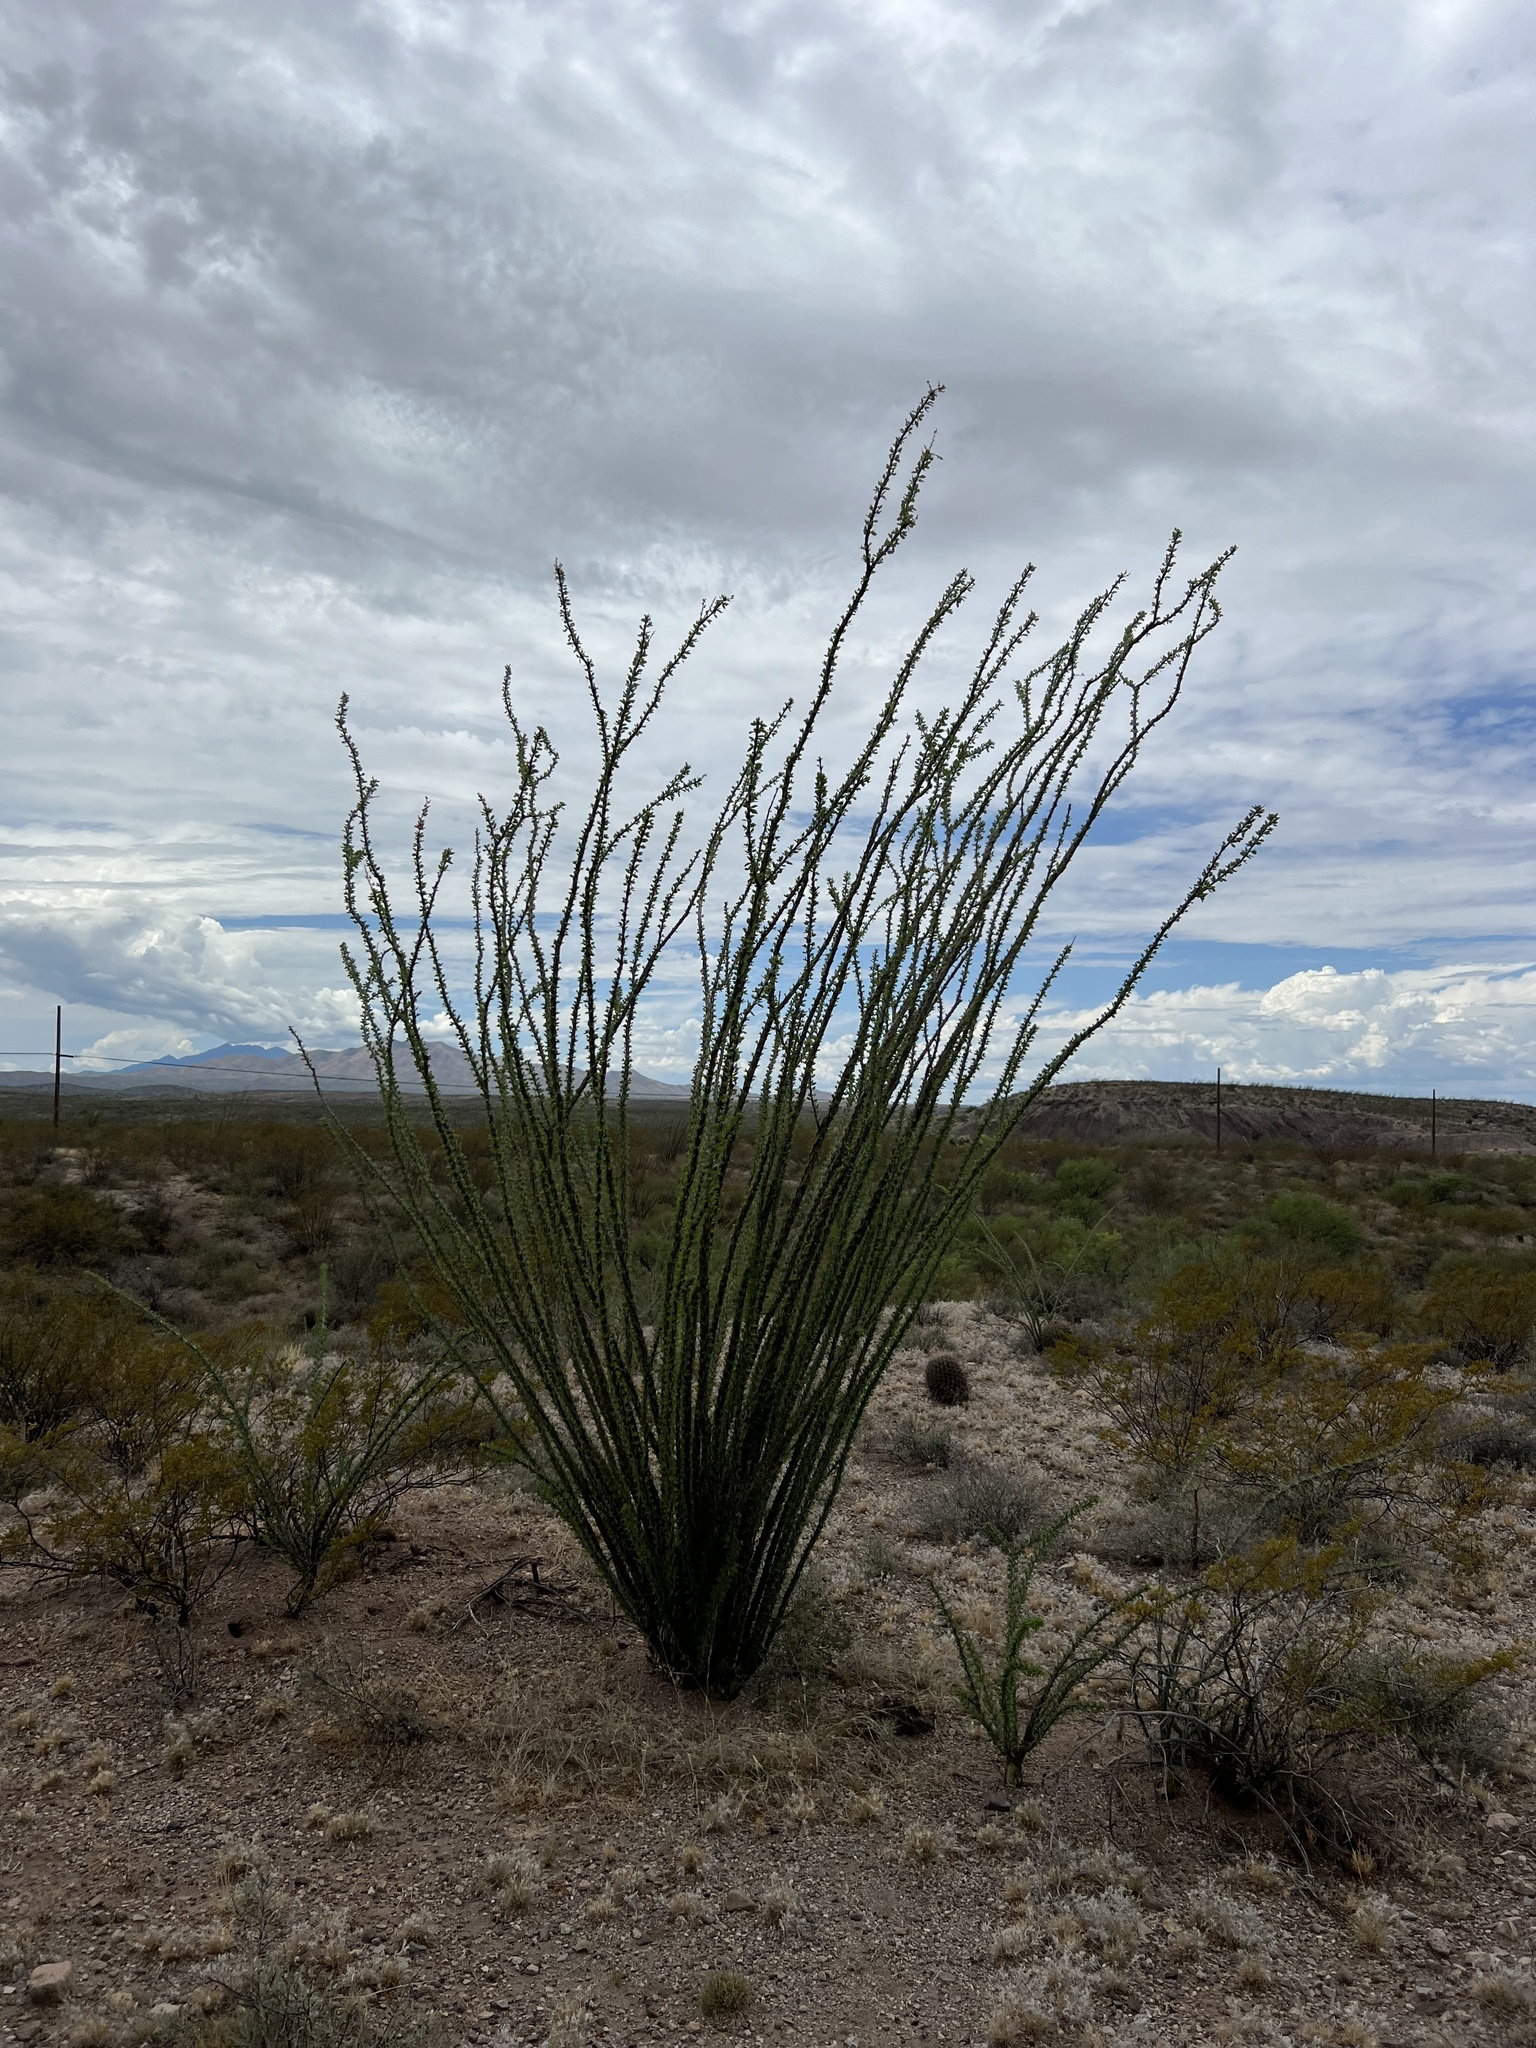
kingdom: Plantae
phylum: Tracheophyta
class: Magnoliopsida
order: Ericales
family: Fouquieriaceae
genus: Fouquieria
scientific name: Fouquieria splendens
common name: Vine-cactus
